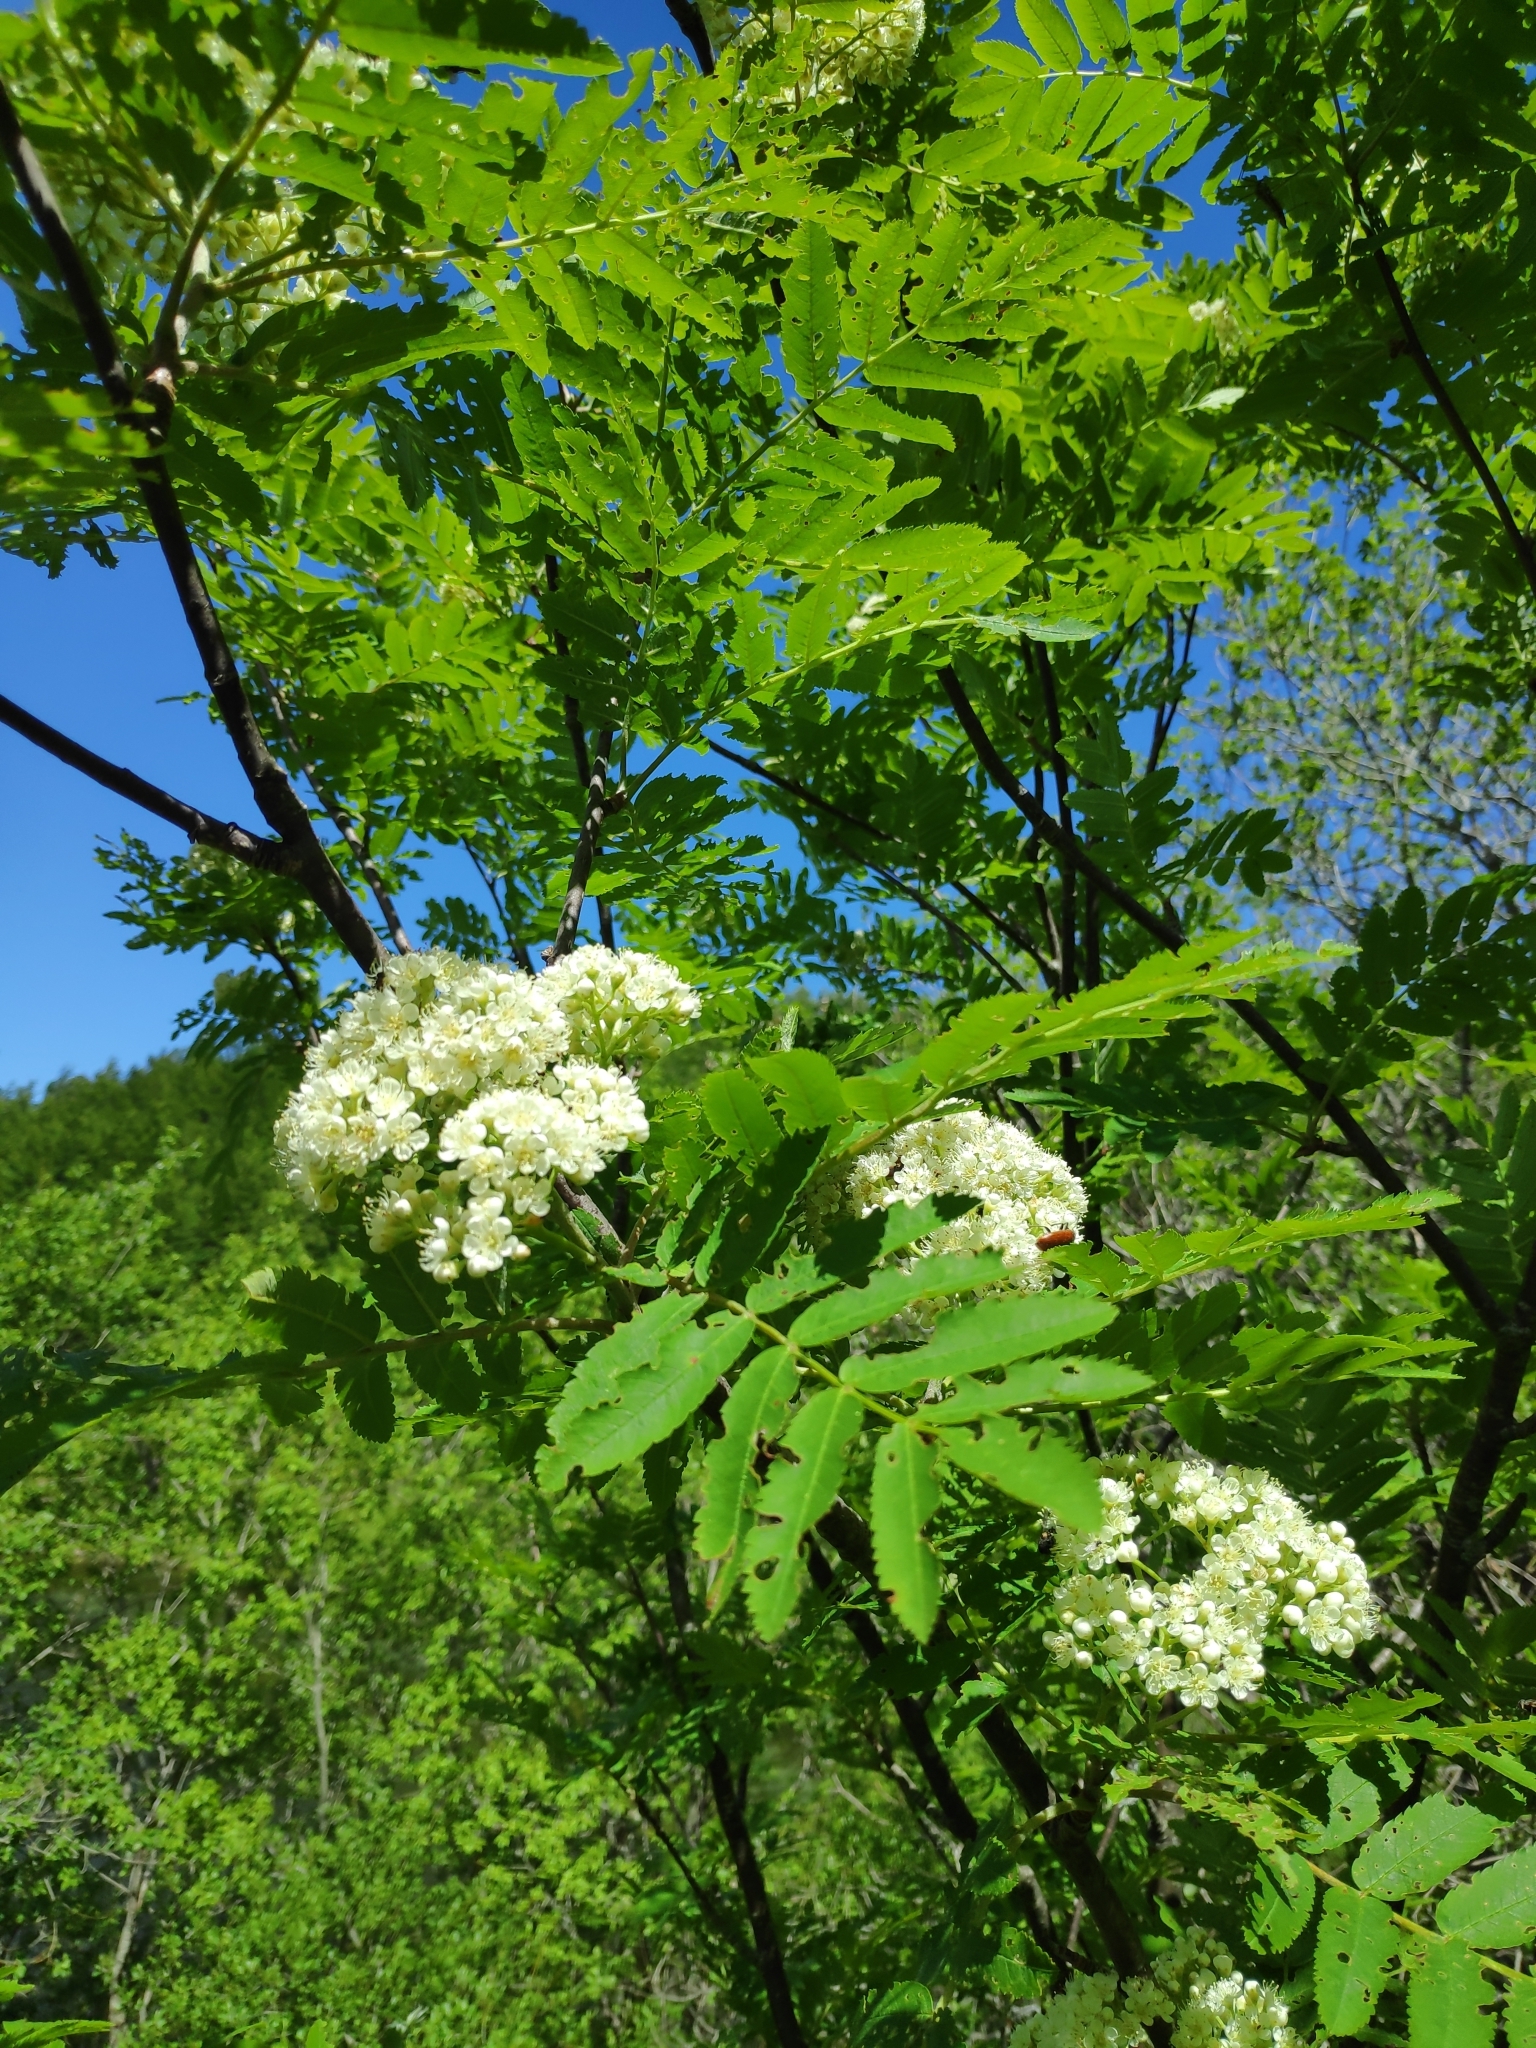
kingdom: Plantae
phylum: Tracheophyta
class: Magnoliopsida
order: Rosales
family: Rosaceae
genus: Sorbus
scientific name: Sorbus aucuparia
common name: Rowan
